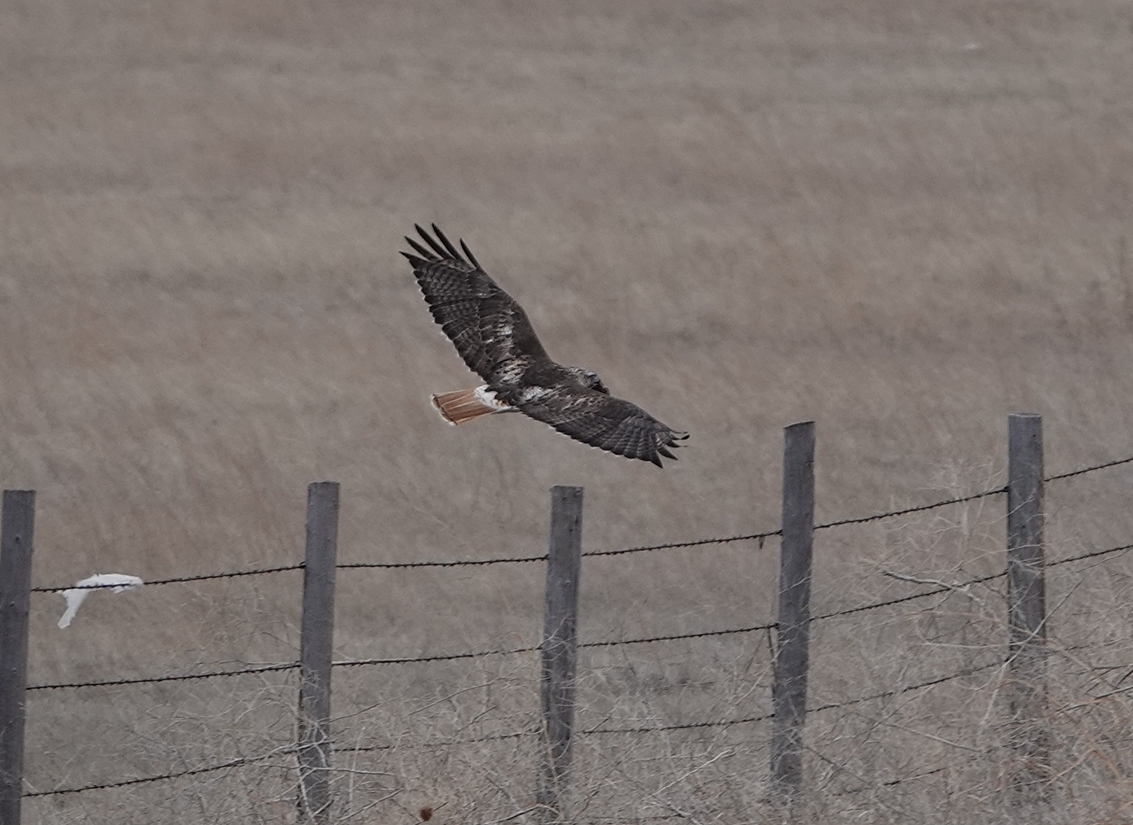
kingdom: Animalia
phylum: Chordata
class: Aves
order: Accipitriformes
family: Accipitridae
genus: Buteo
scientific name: Buteo jamaicensis
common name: Red-tailed hawk
